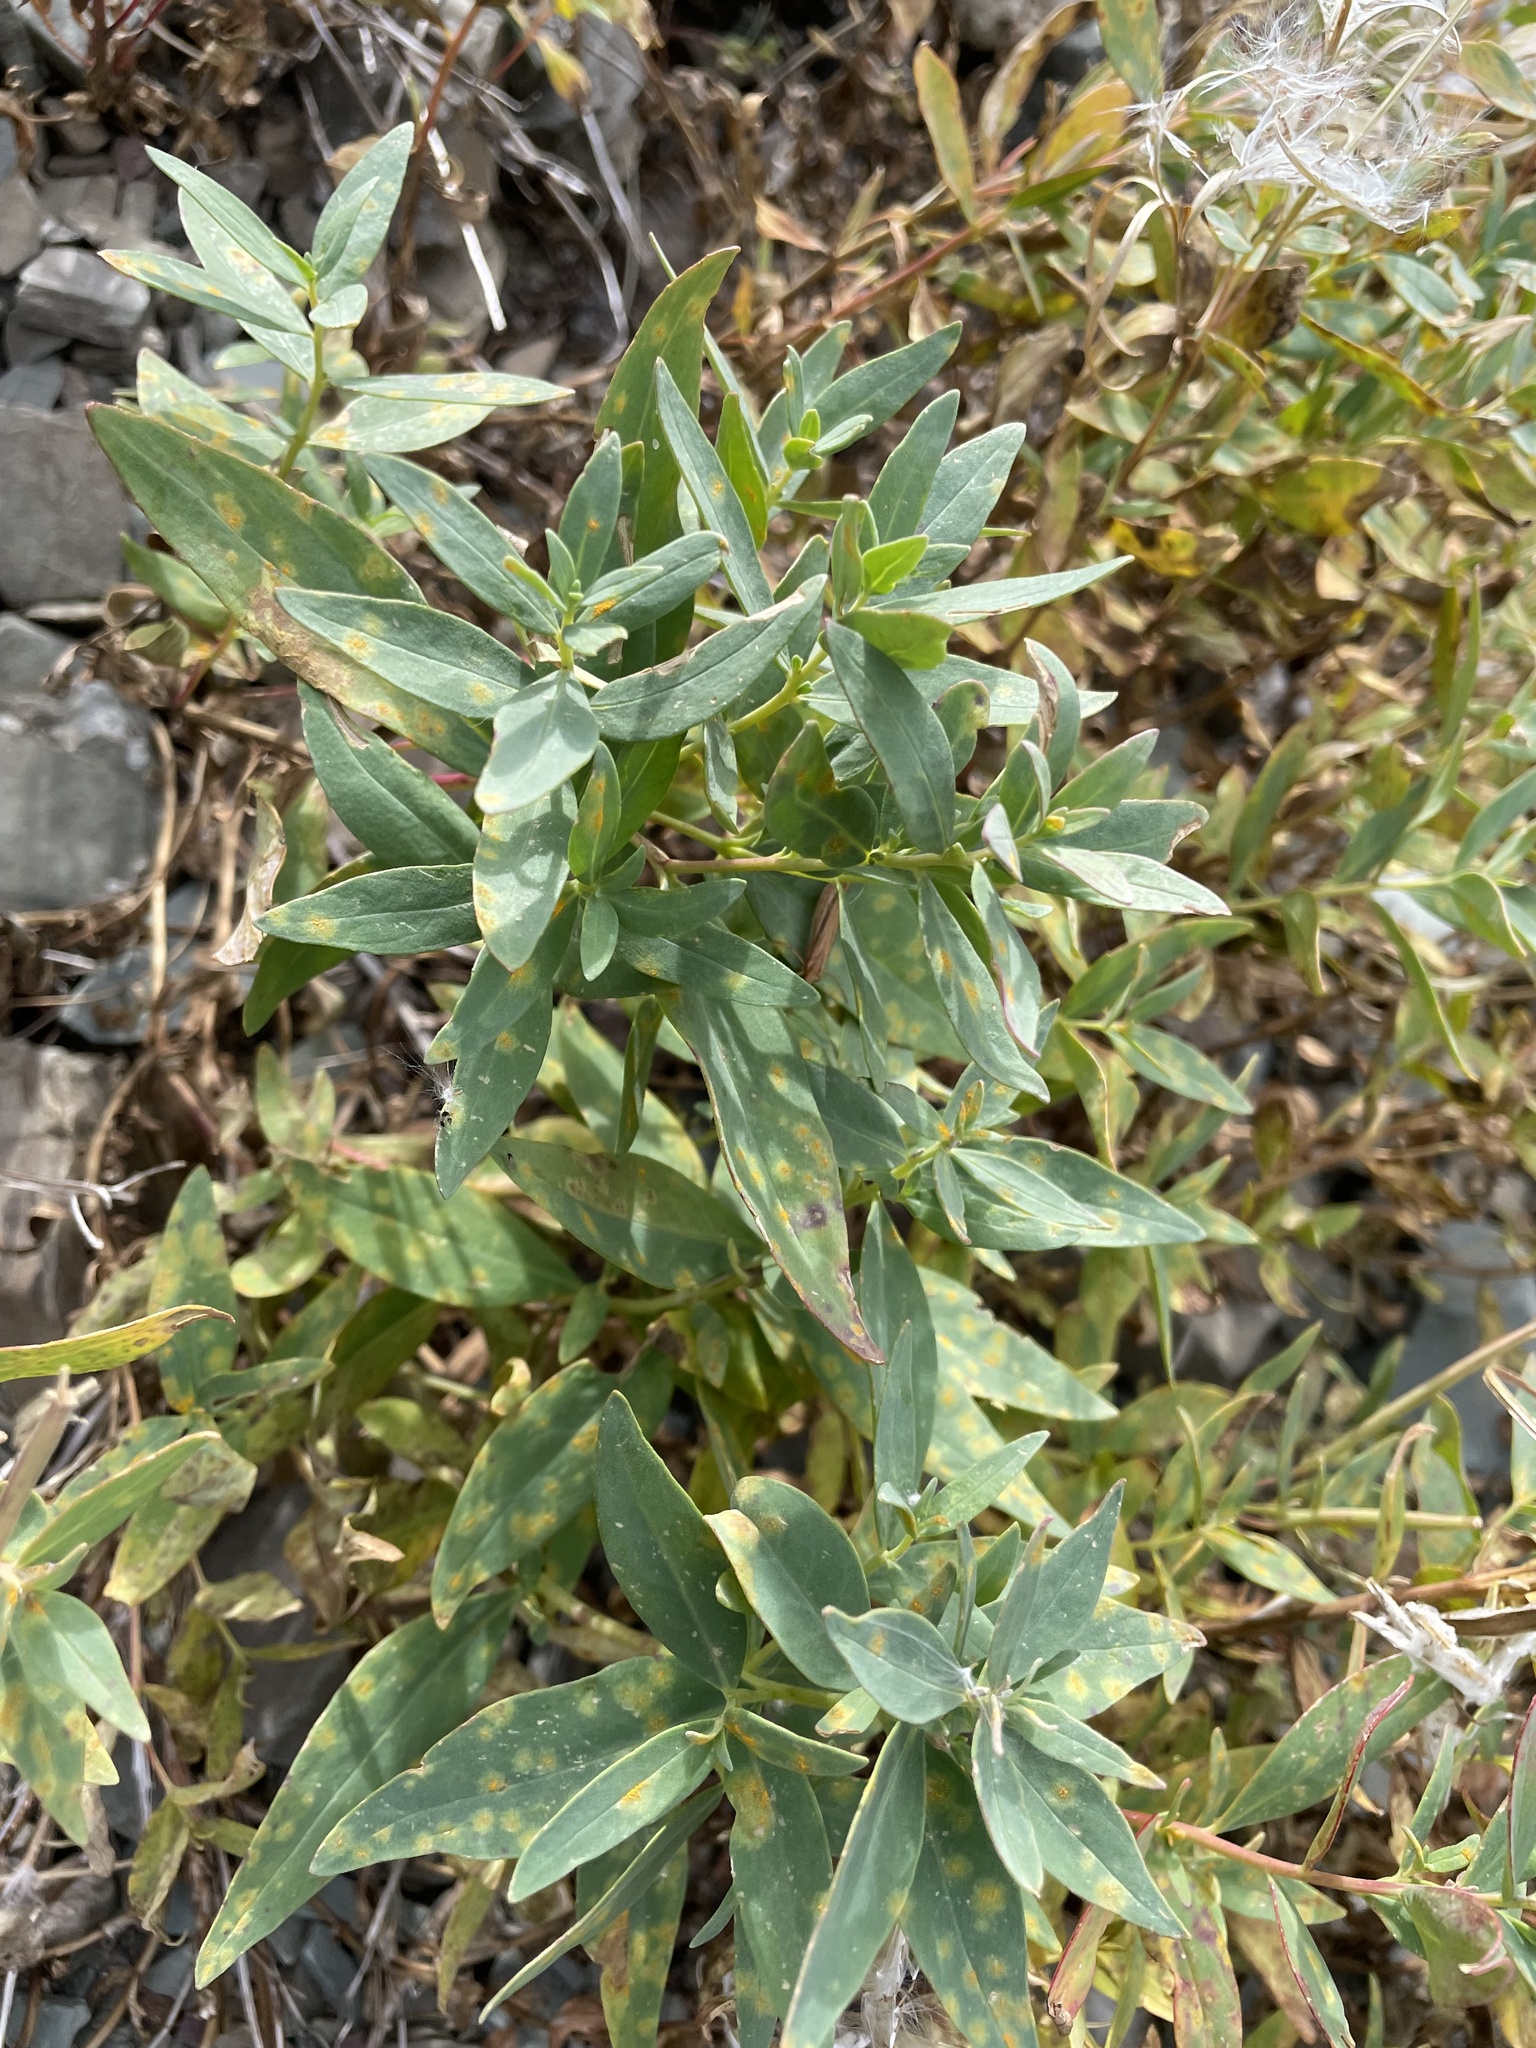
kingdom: Plantae
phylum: Tracheophyta
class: Magnoliopsida
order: Myrtales
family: Onagraceae
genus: Chamaenerion
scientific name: Chamaenerion latifolium
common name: Dwarf fireweed
